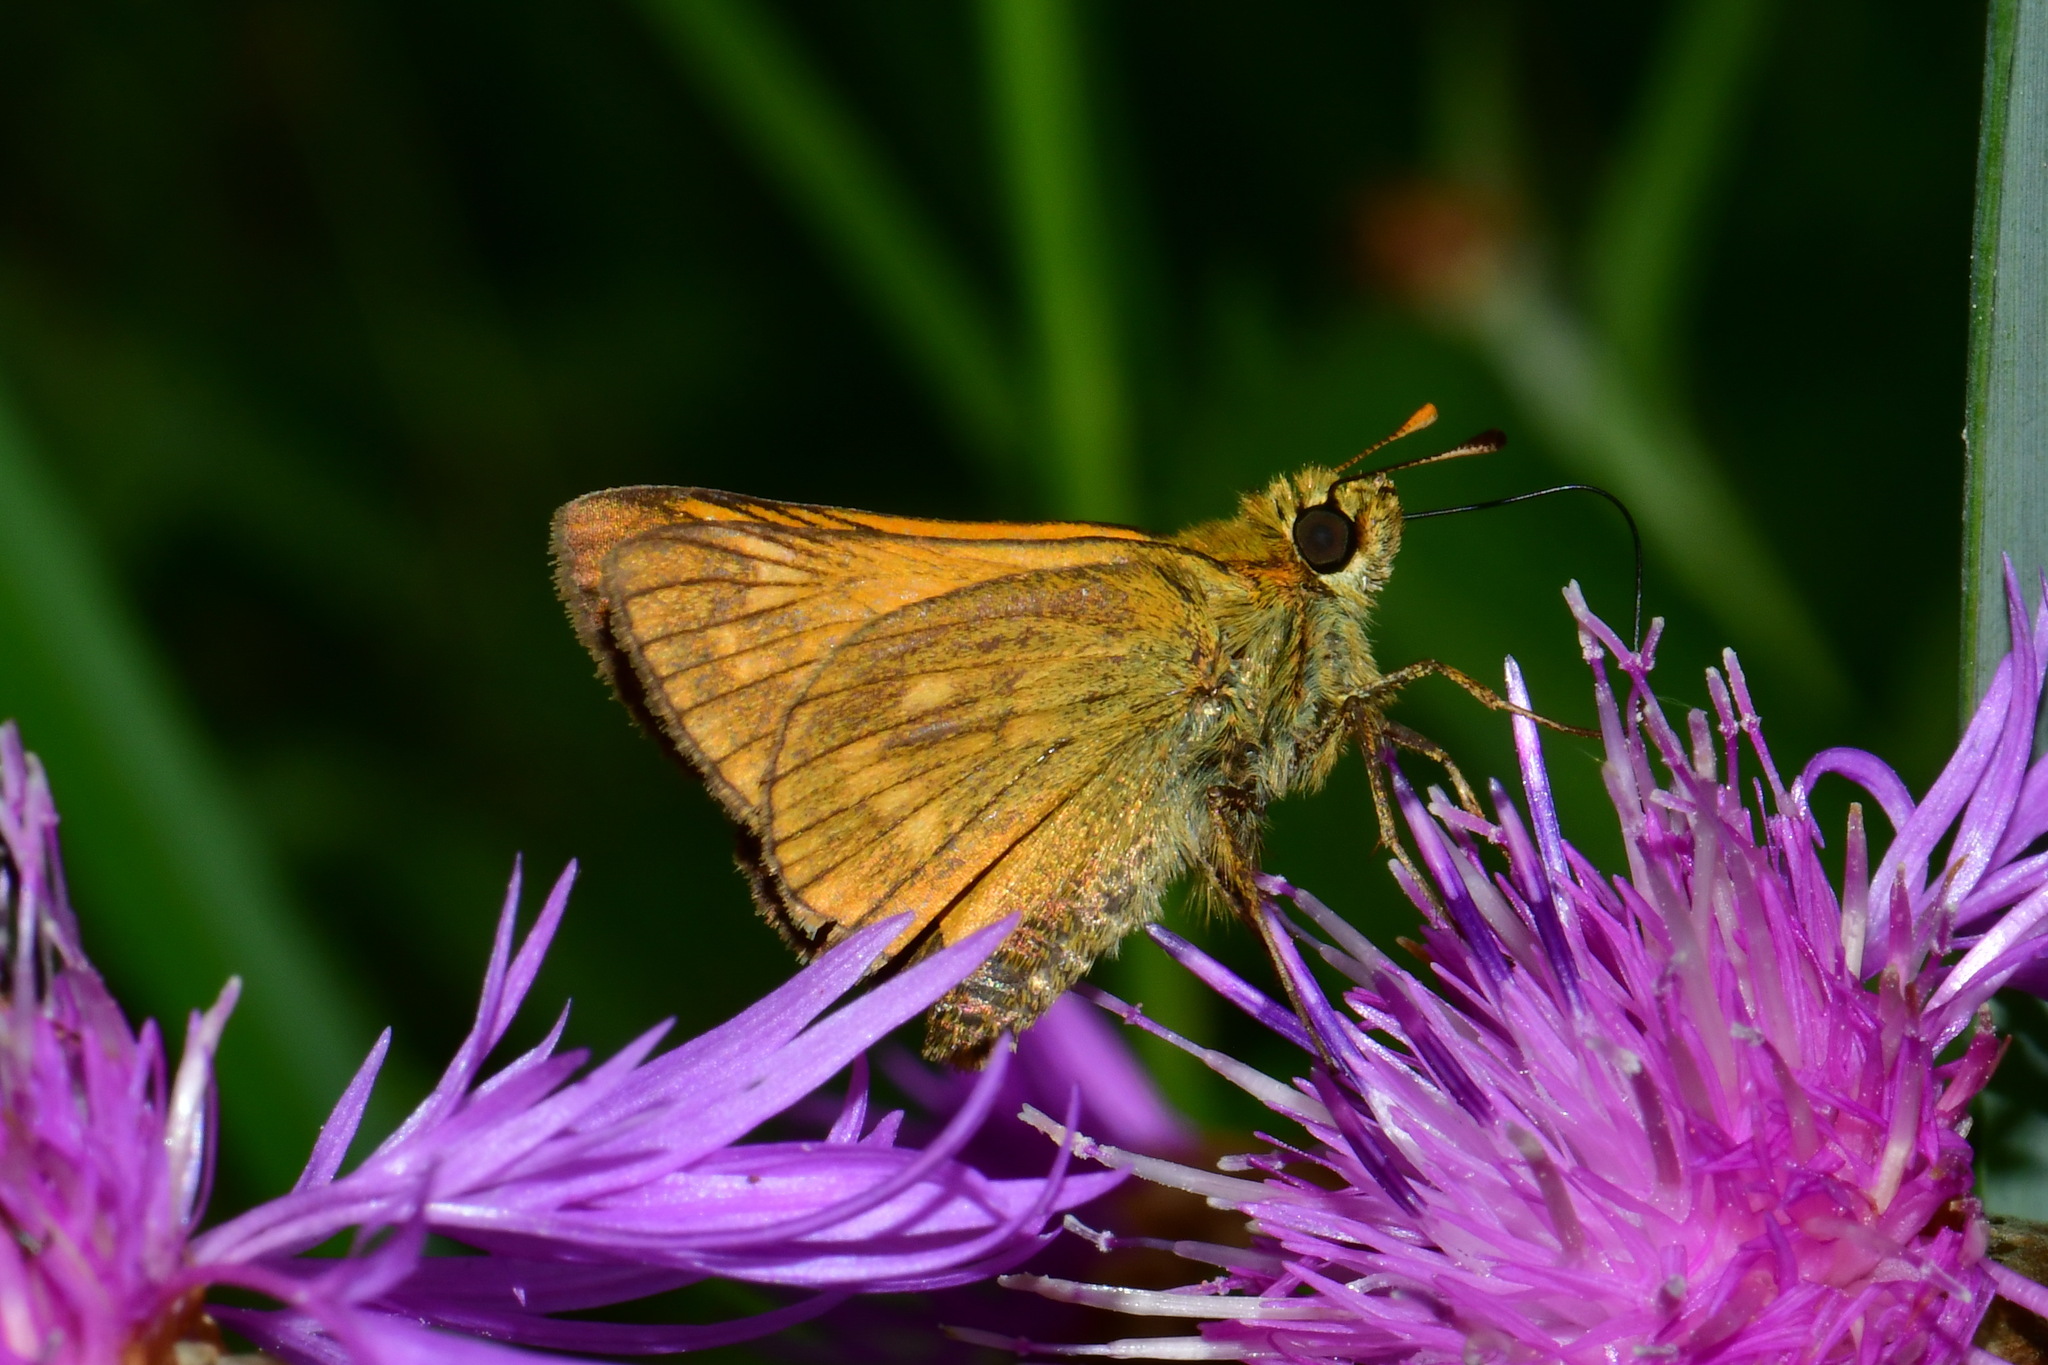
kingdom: Animalia
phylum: Arthropoda
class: Insecta
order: Lepidoptera
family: Hesperiidae
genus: Ochlodes
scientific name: Ochlodes venata
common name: Large skipper
